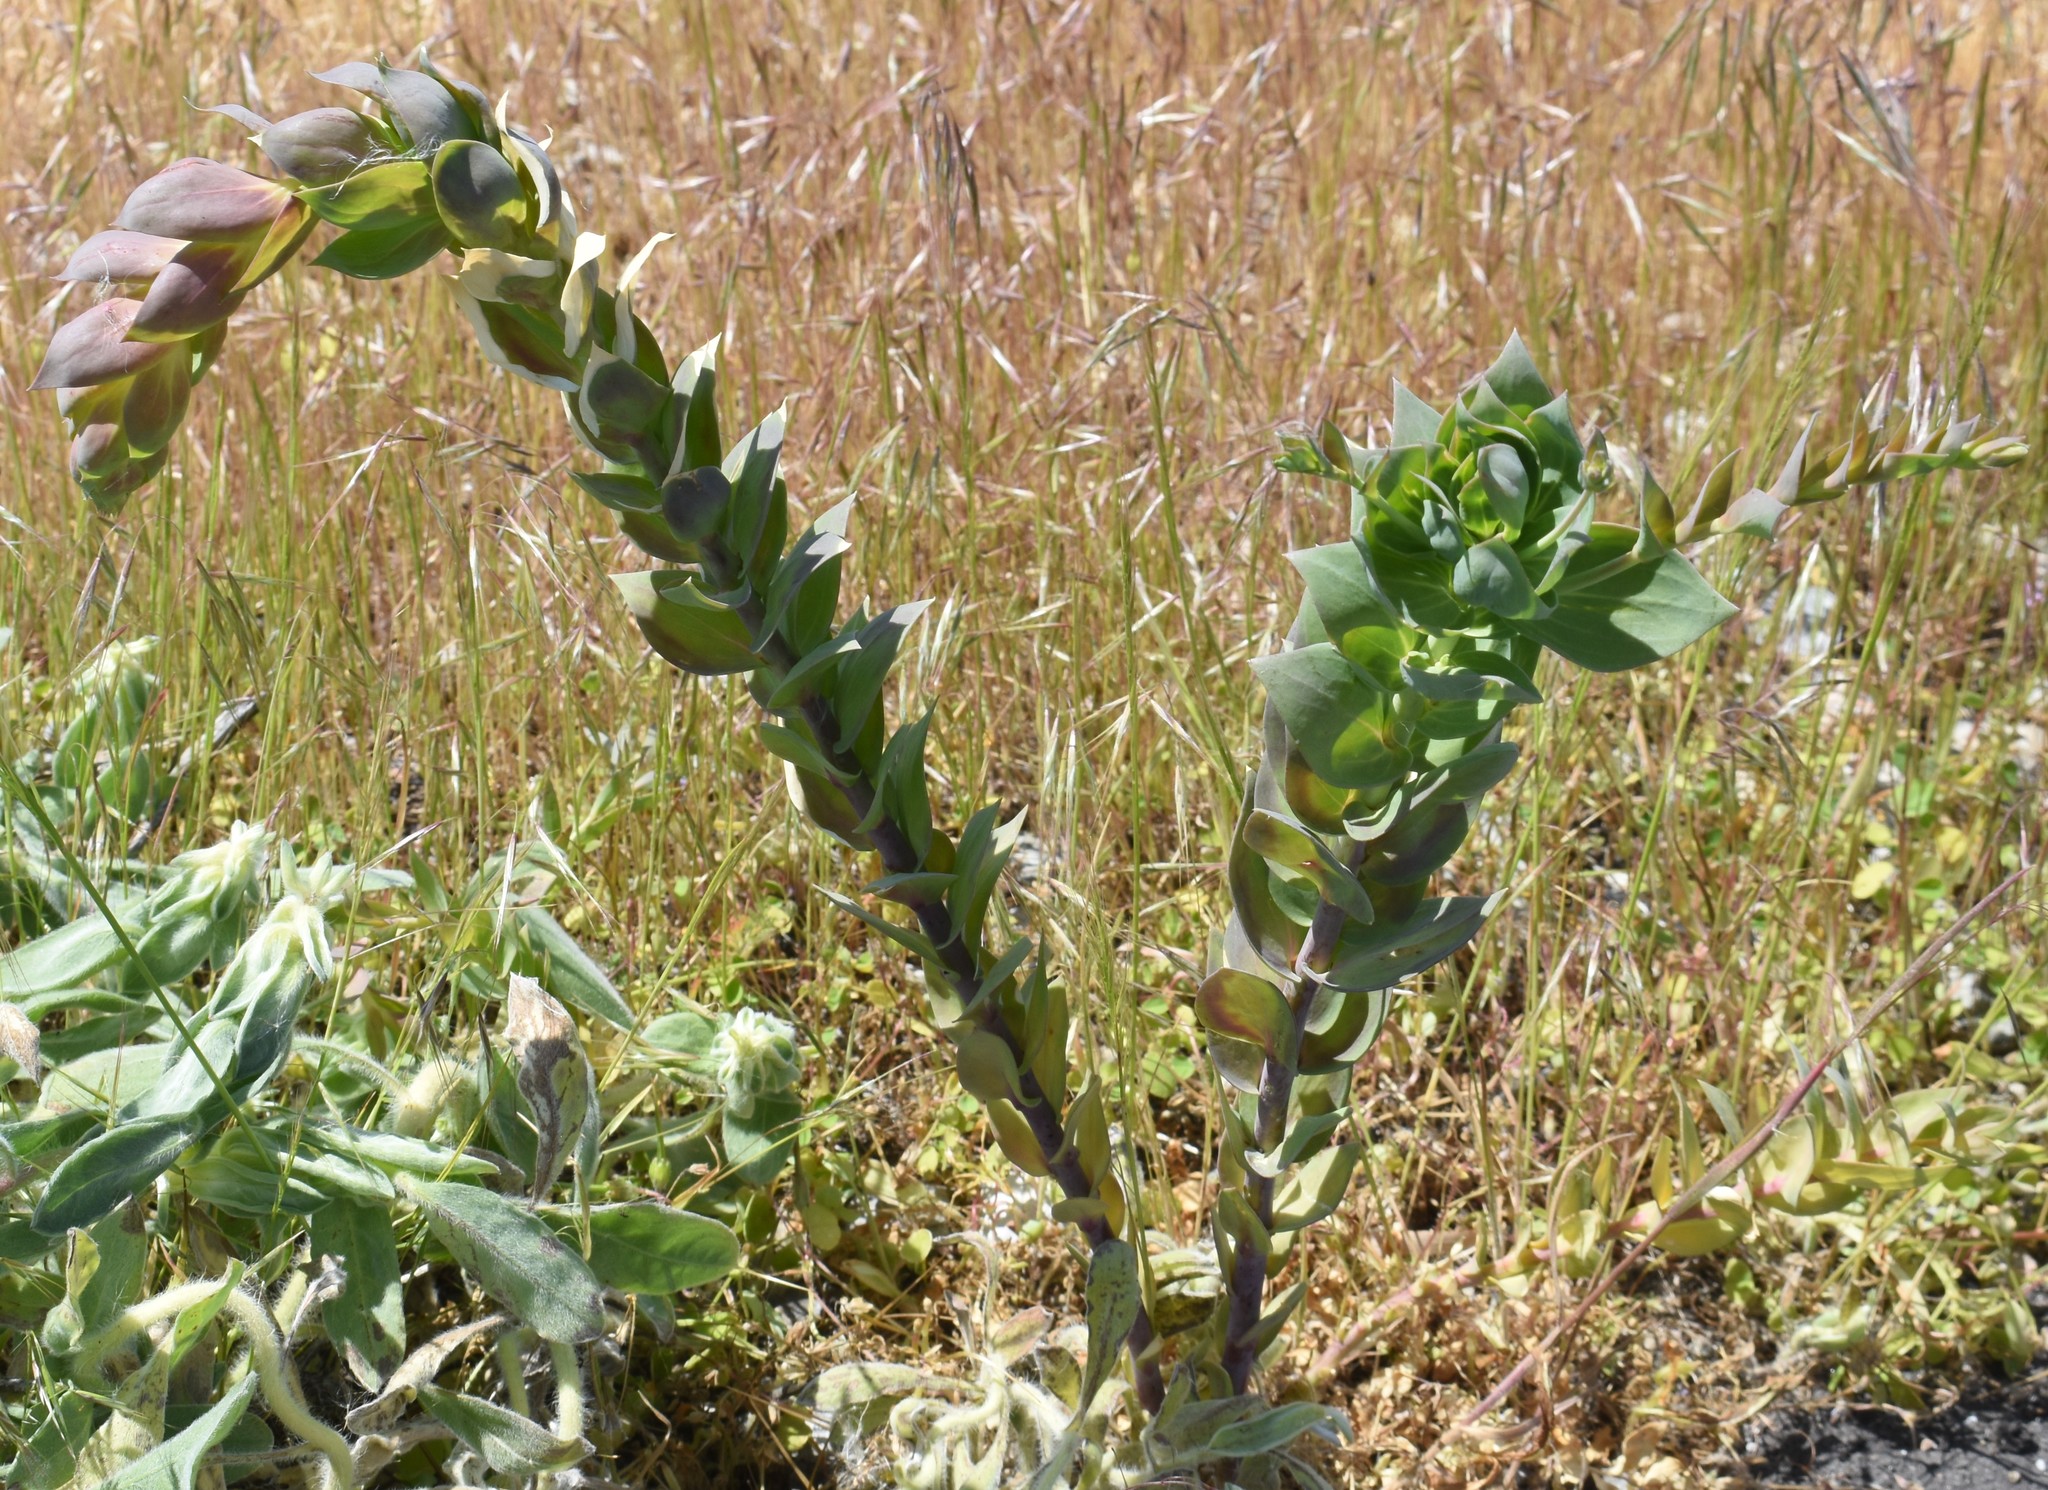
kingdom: Plantae
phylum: Tracheophyta
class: Magnoliopsida
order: Lamiales
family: Plantaginaceae
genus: Linaria
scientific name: Linaria dalmatica
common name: Dalmatian toadflax
